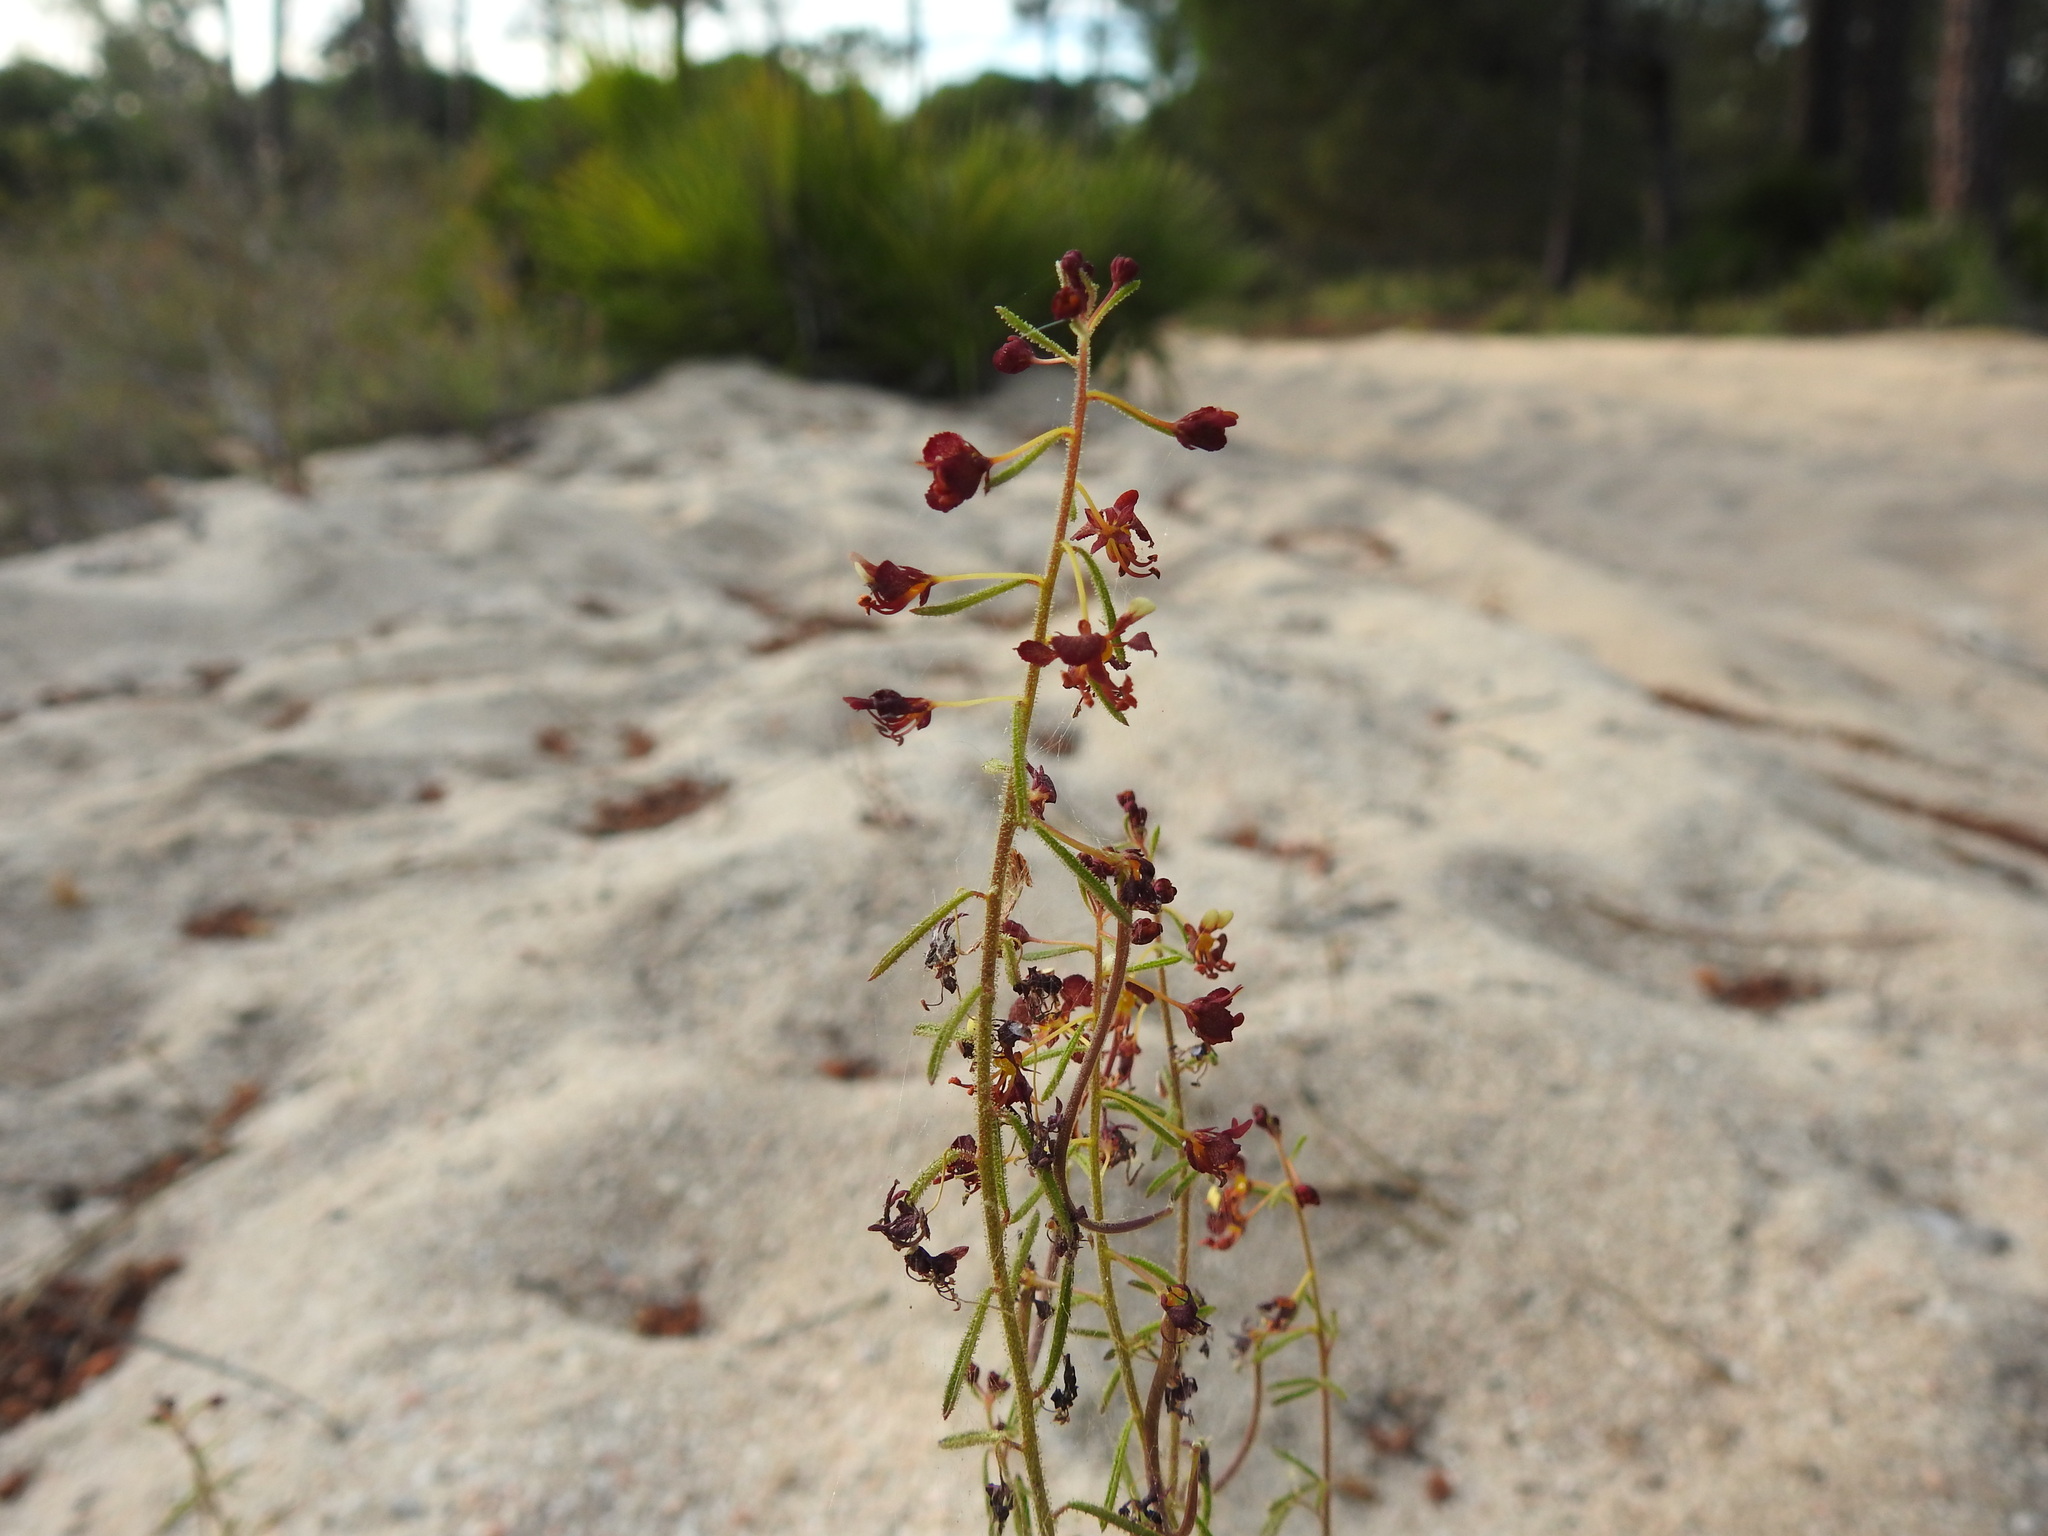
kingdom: Plantae
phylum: Tracheophyta
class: Magnoliopsida
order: Brassicales
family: Cleomaceae
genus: Cleome
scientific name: Cleome violacea
